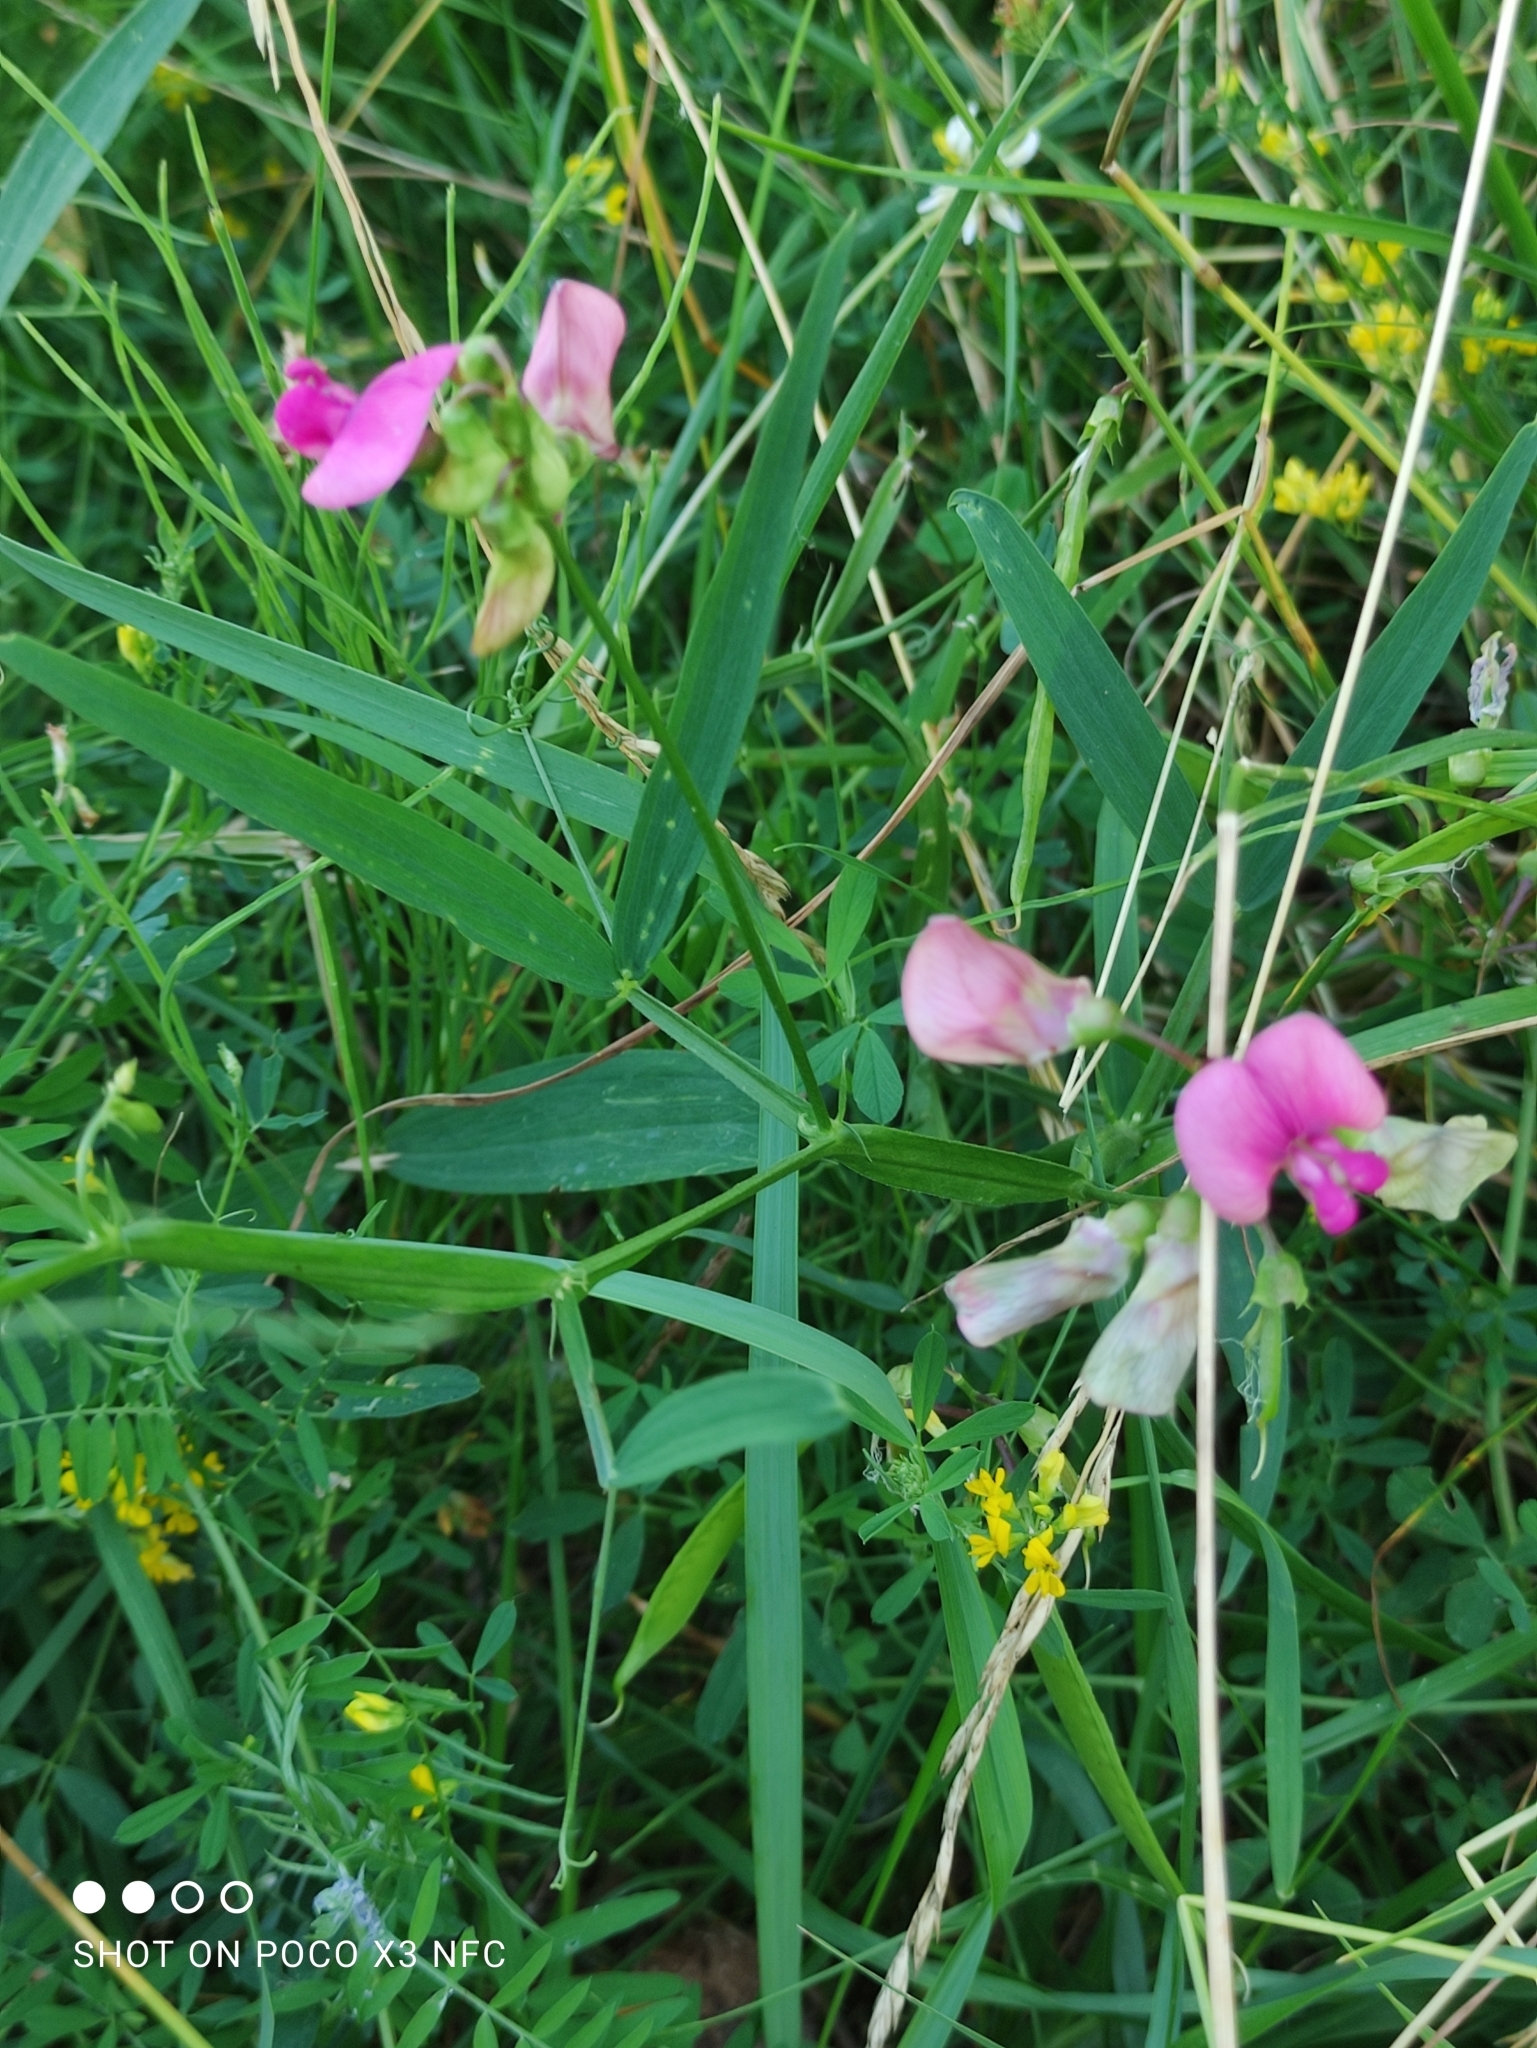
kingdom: Plantae
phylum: Tracheophyta
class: Magnoliopsida
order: Fabales
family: Fabaceae
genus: Lathyrus
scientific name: Lathyrus sylvestris
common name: Flat pea
